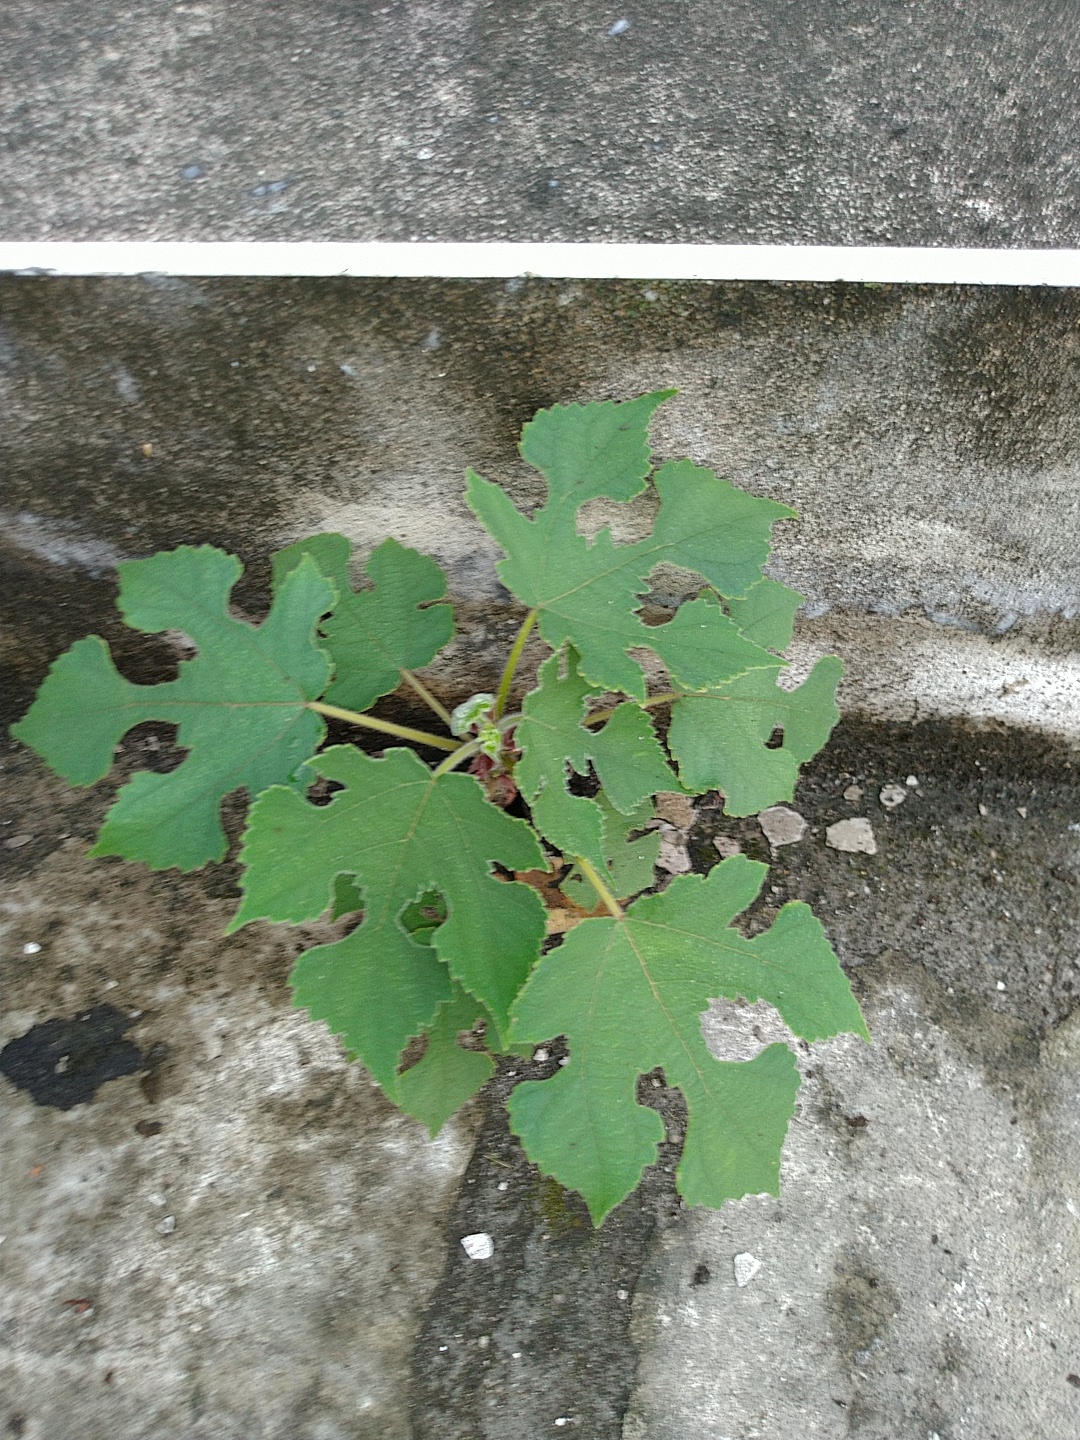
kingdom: Plantae
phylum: Tracheophyta
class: Magnoliopsida
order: Rosales
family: Moraceae
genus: Broussonetia
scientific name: Broussonetia papyrifera
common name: Paper mulberry
